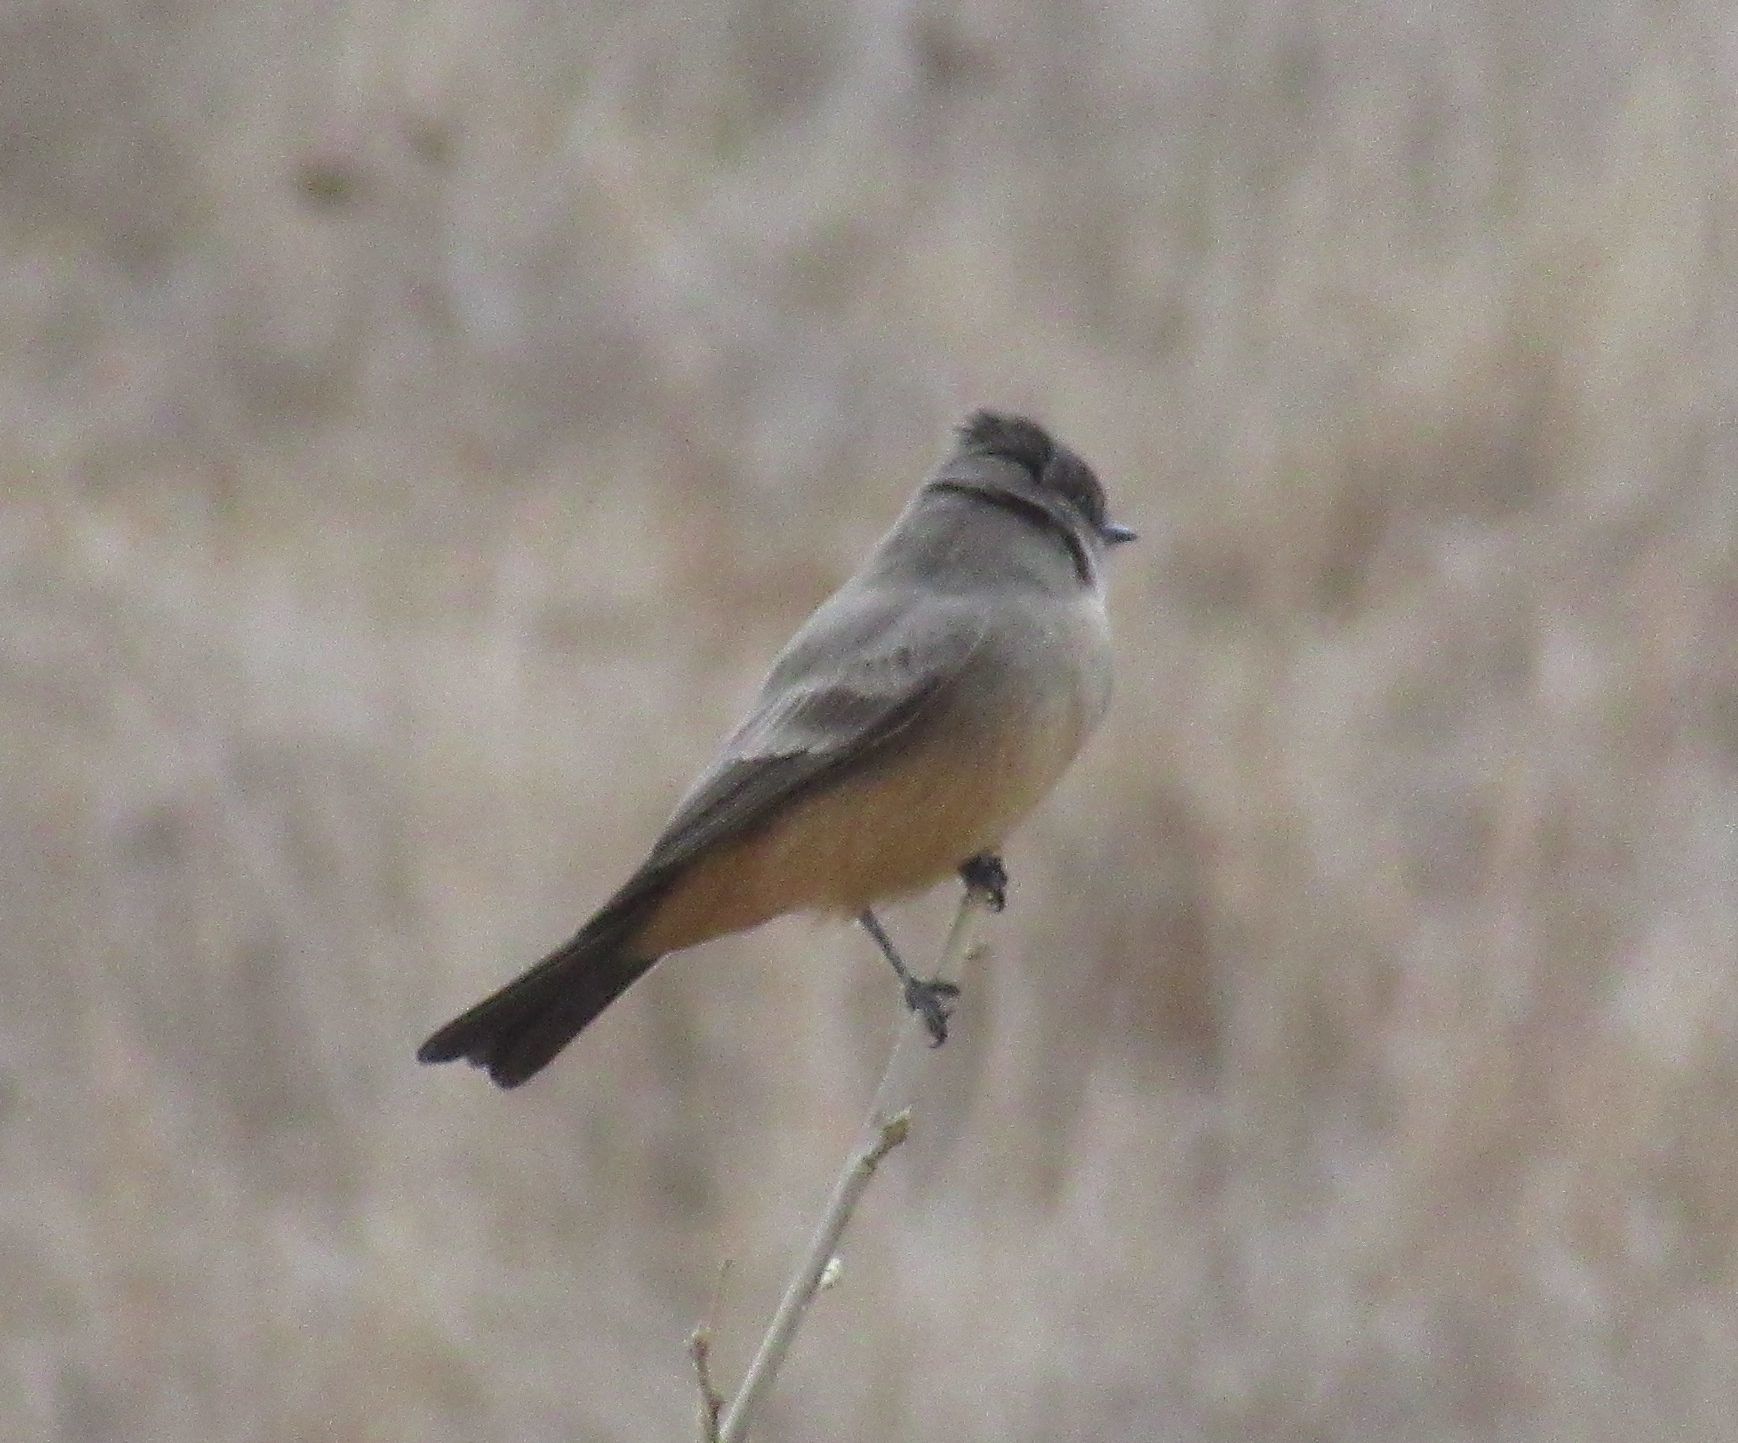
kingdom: Animalia
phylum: Chordata
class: Aves
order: Passeriformes
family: Tyrannidae
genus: Sayornis
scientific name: Sayornis saya
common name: Say's phoebe
